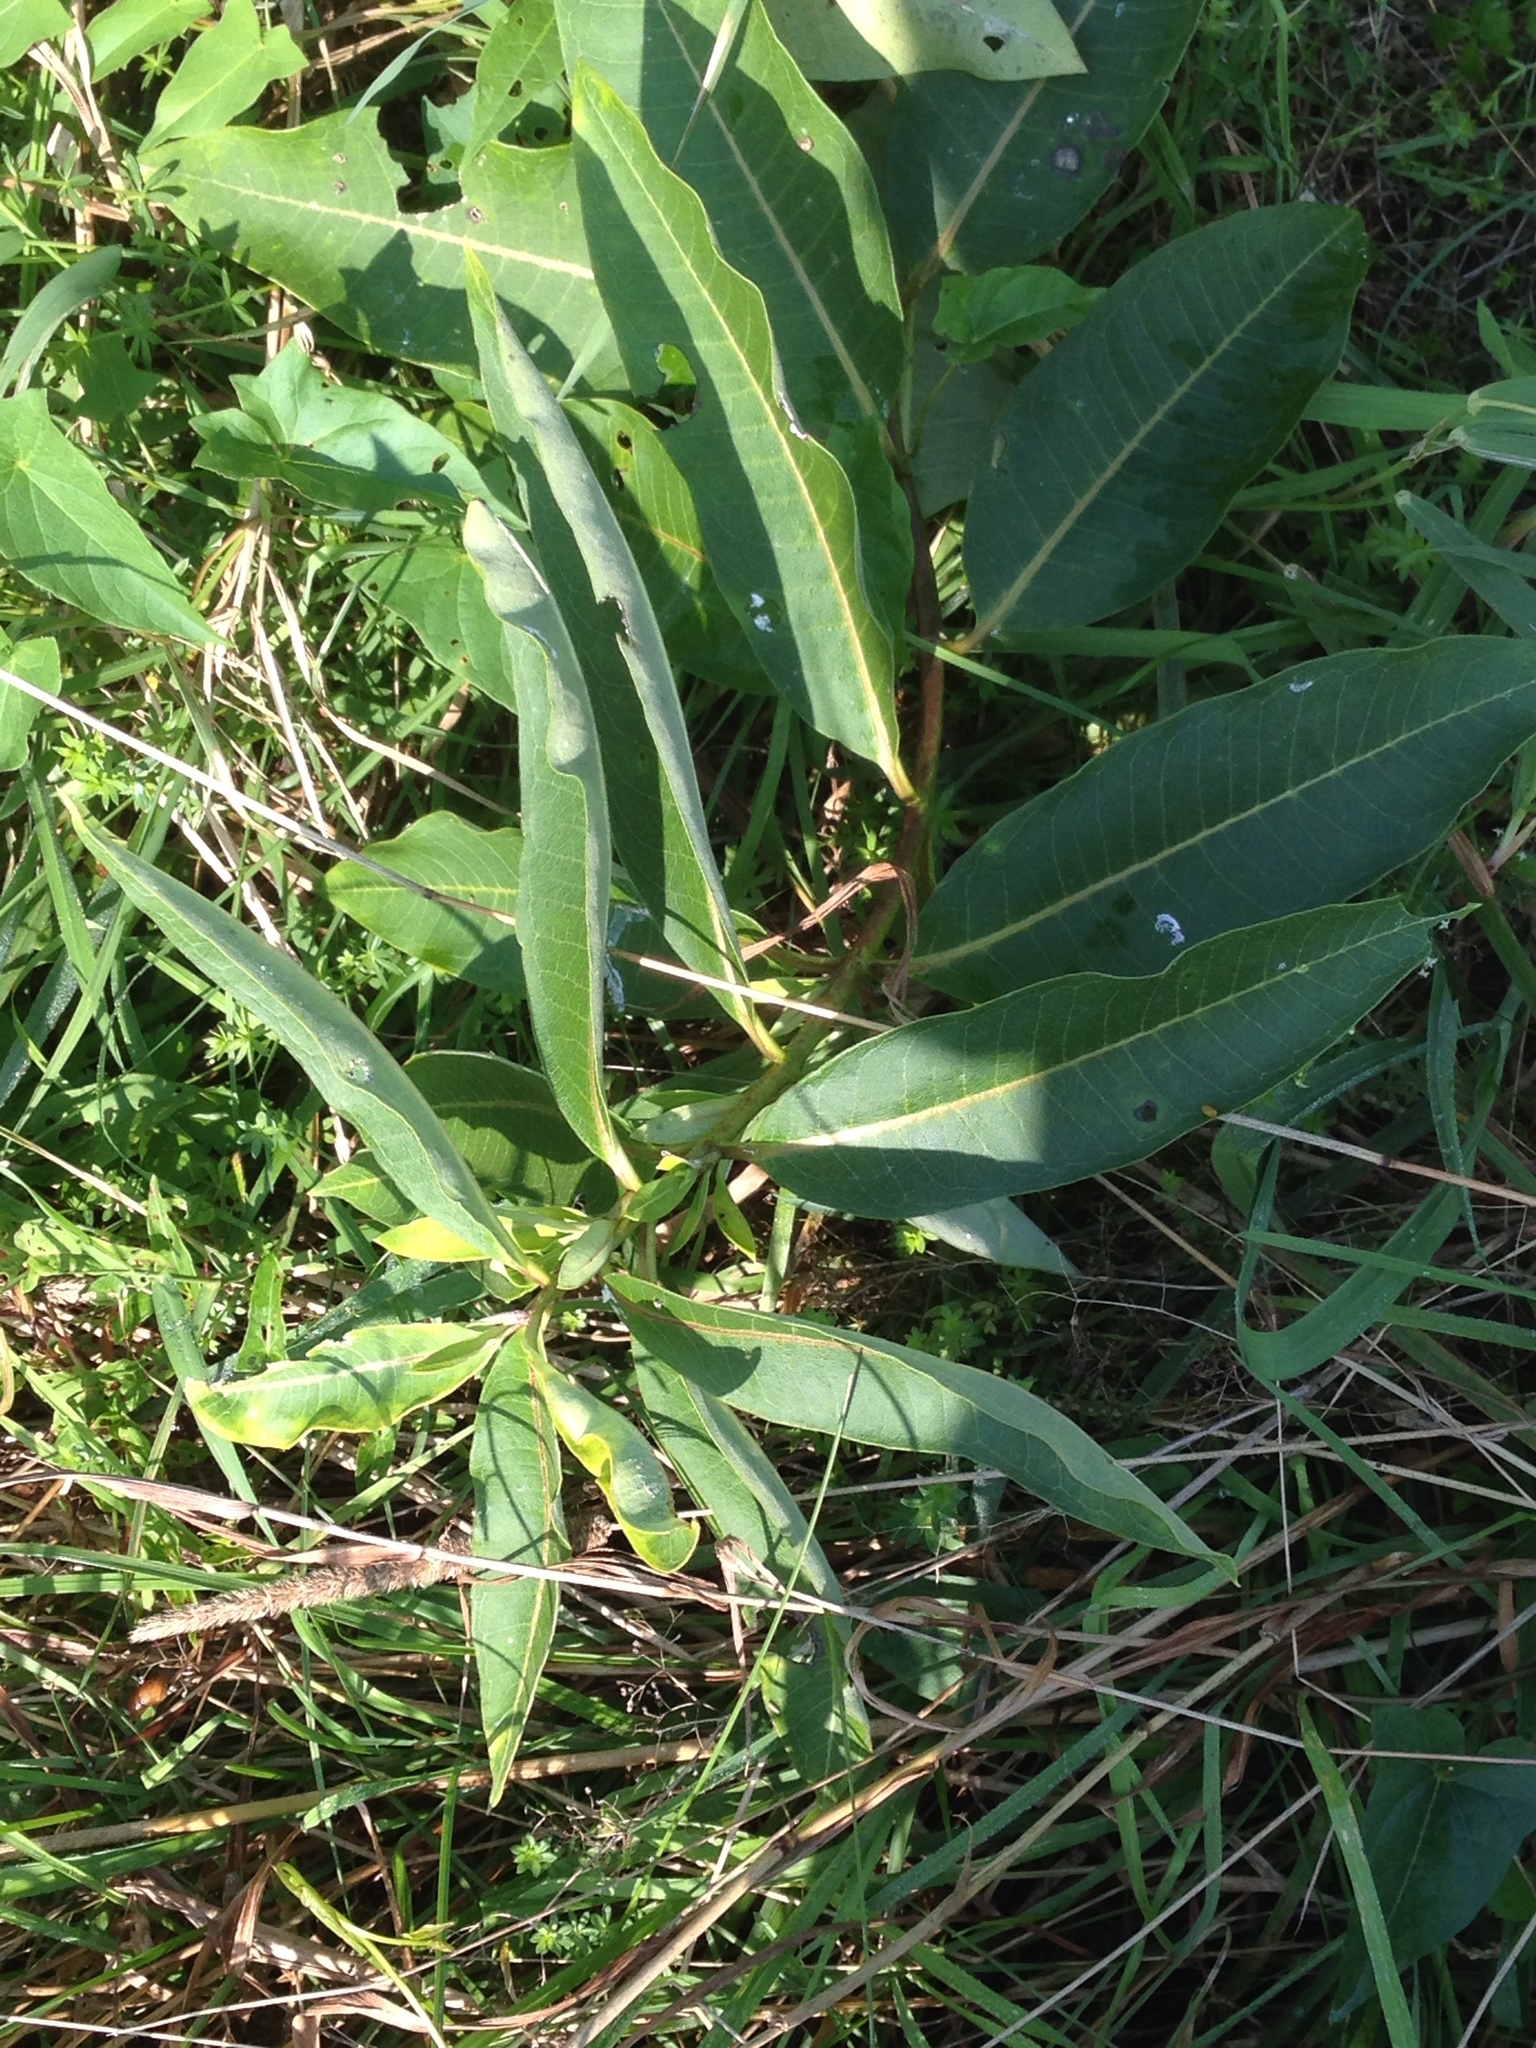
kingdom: Plantae
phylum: Tracheophyta
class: Magnoliopsida
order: Gentianales
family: Apocynaceae
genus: Asclepias
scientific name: Asclepias syriaca
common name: Common milkweed
